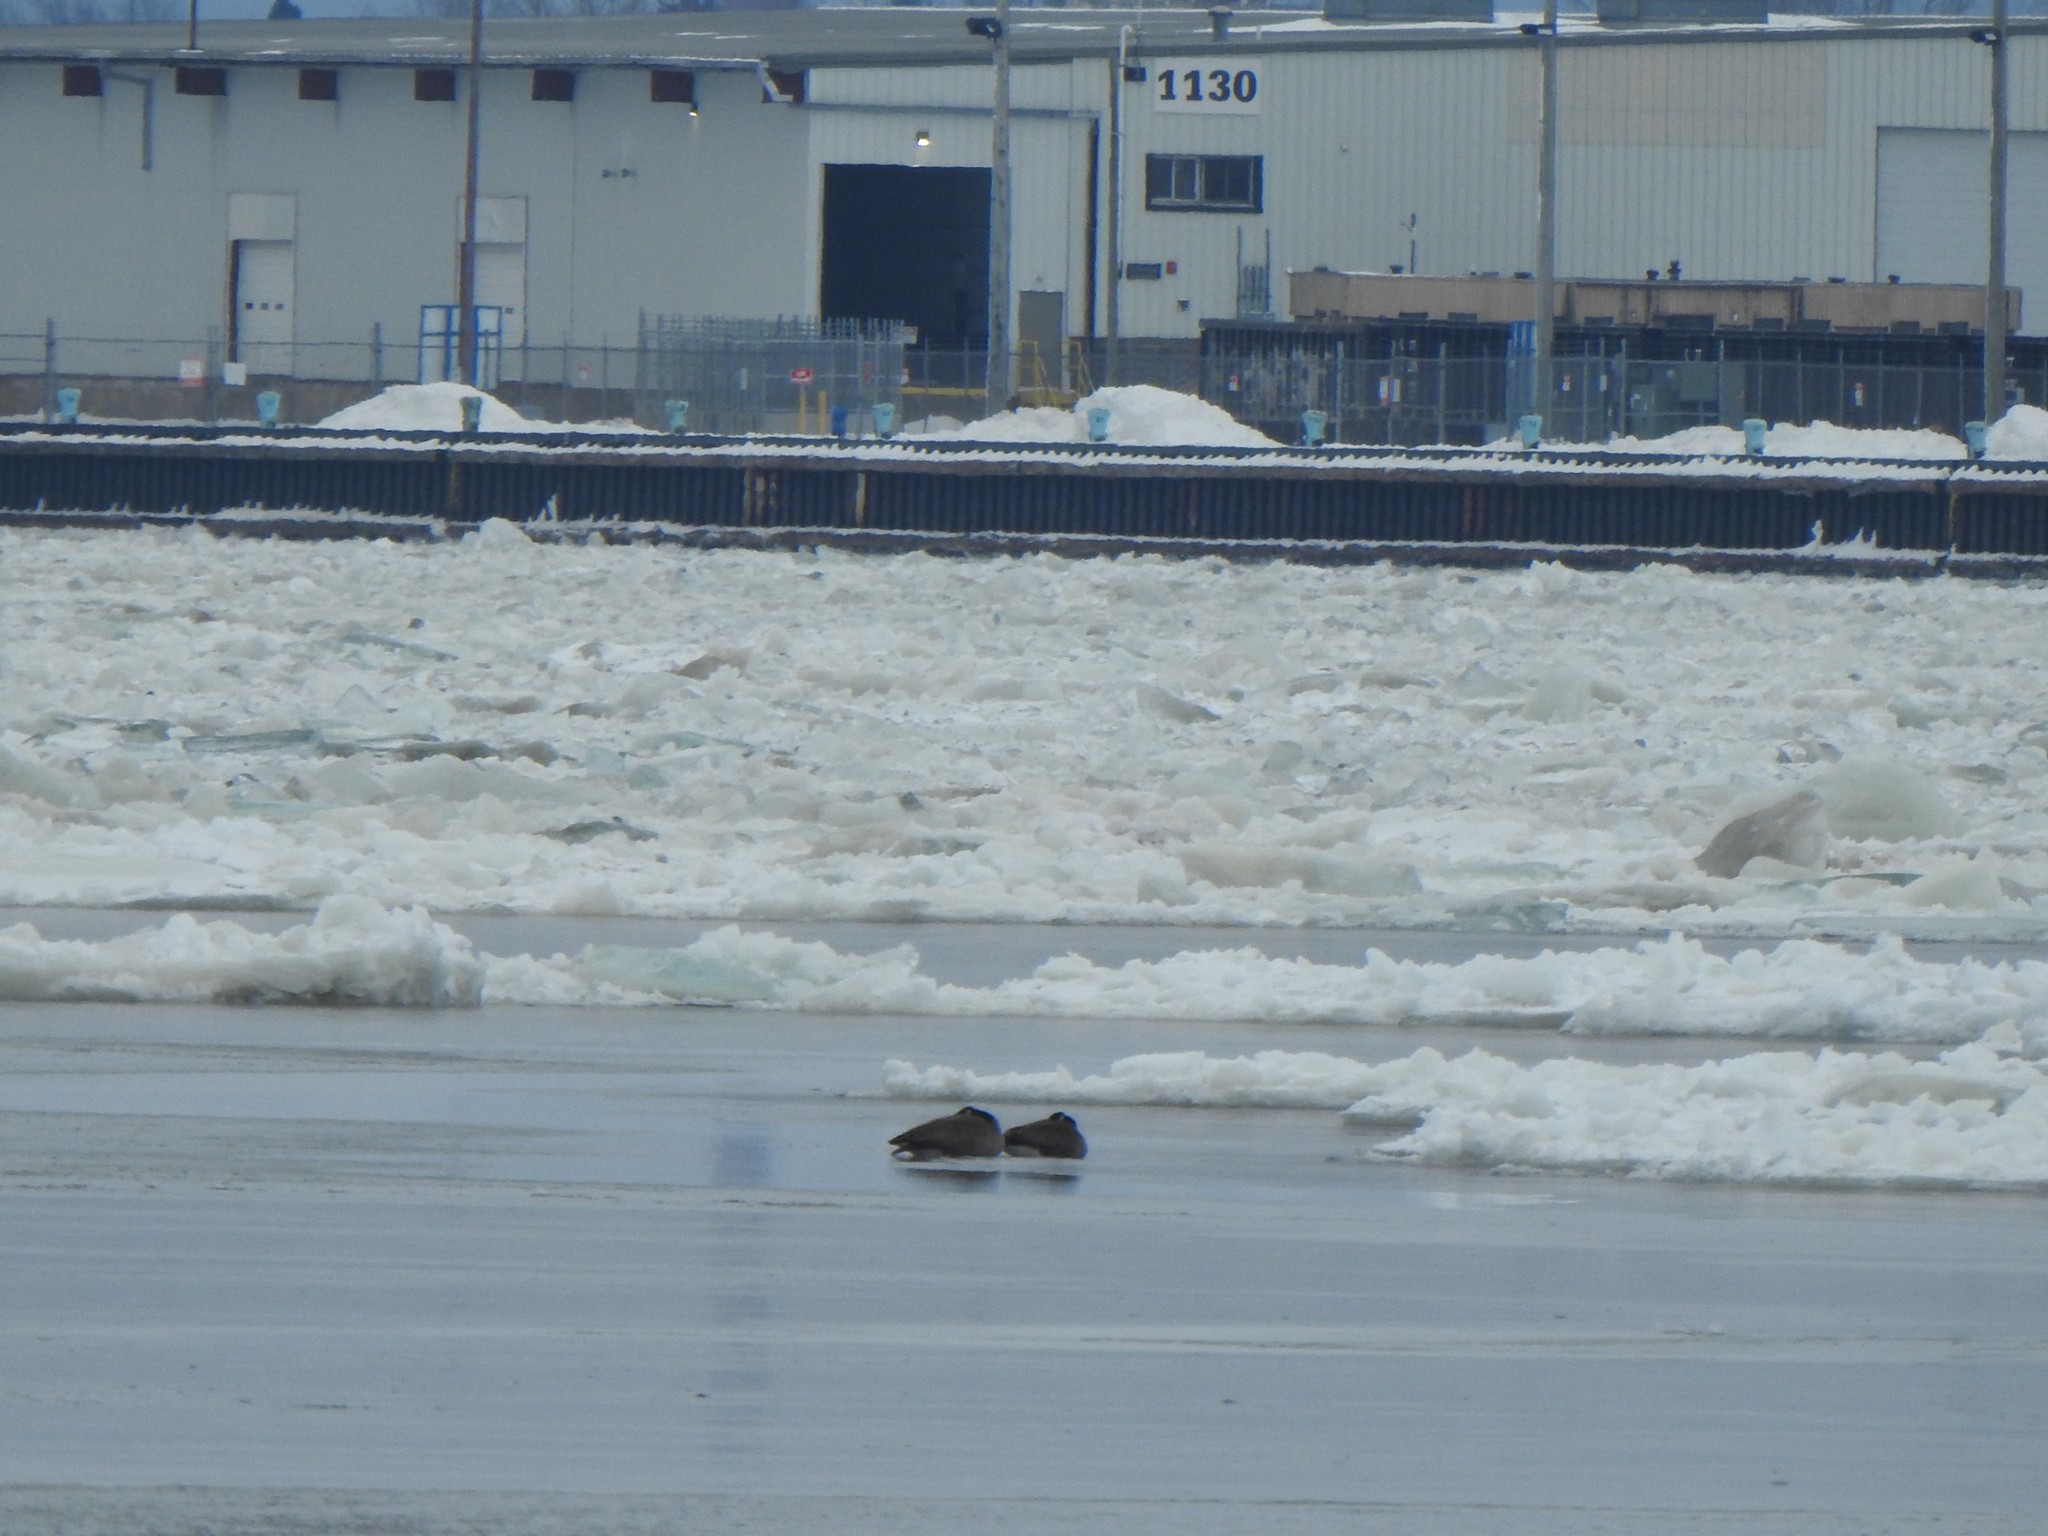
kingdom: Animalia
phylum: Chordata
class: Aves
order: Anseriformes
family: Anatidae
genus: Branta
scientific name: Branta canadensis
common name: Canada goose
